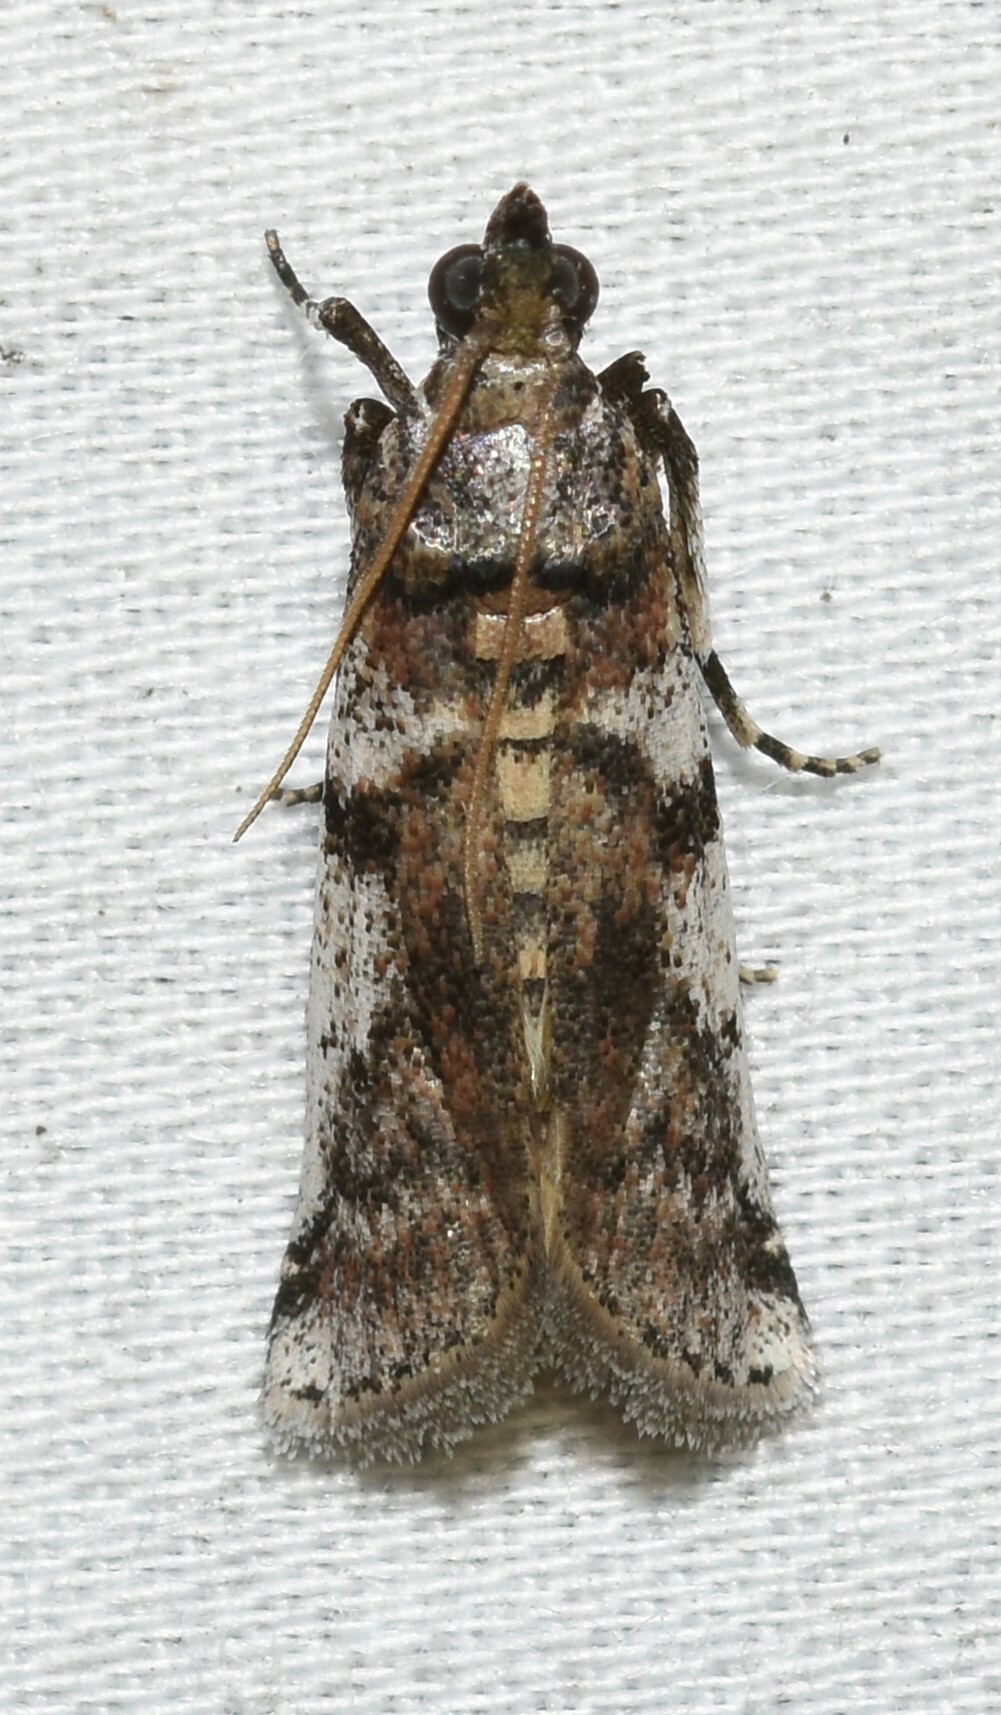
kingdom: Animalia
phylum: Arthropoda
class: Insecta
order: Lepidoptera
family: Pyralidae
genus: Laetilia
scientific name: Laetilia coccidivora
